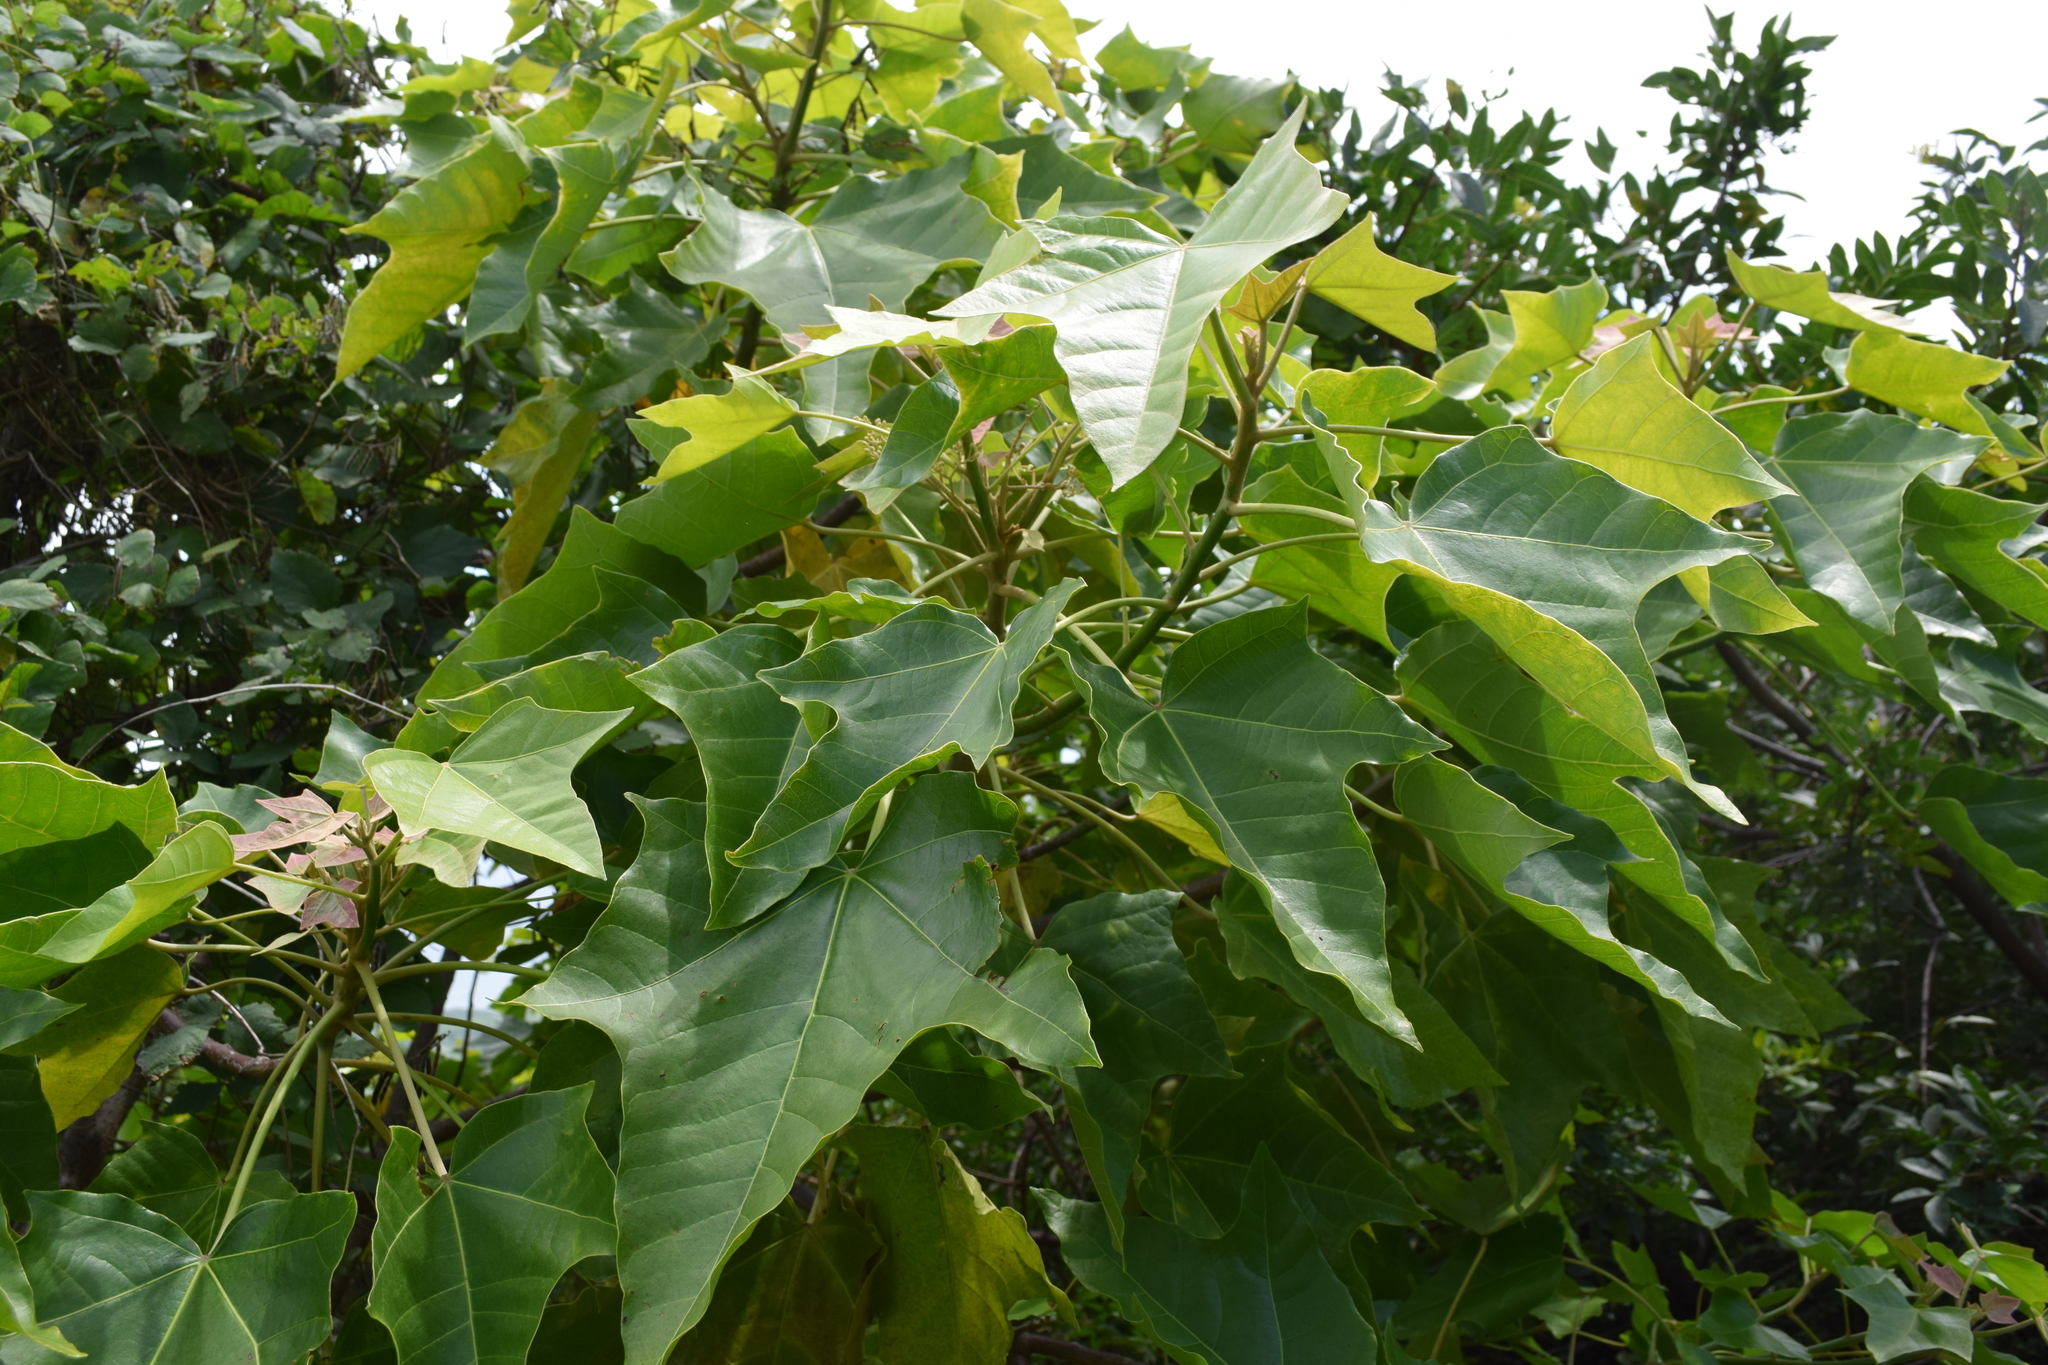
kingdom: Plantae
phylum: Tracheophyta
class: Magnoliopsida
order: Malpighiales
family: Euphorbiaceae
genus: Aleurites
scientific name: Aleurites moluccanus
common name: Candlenut tree
